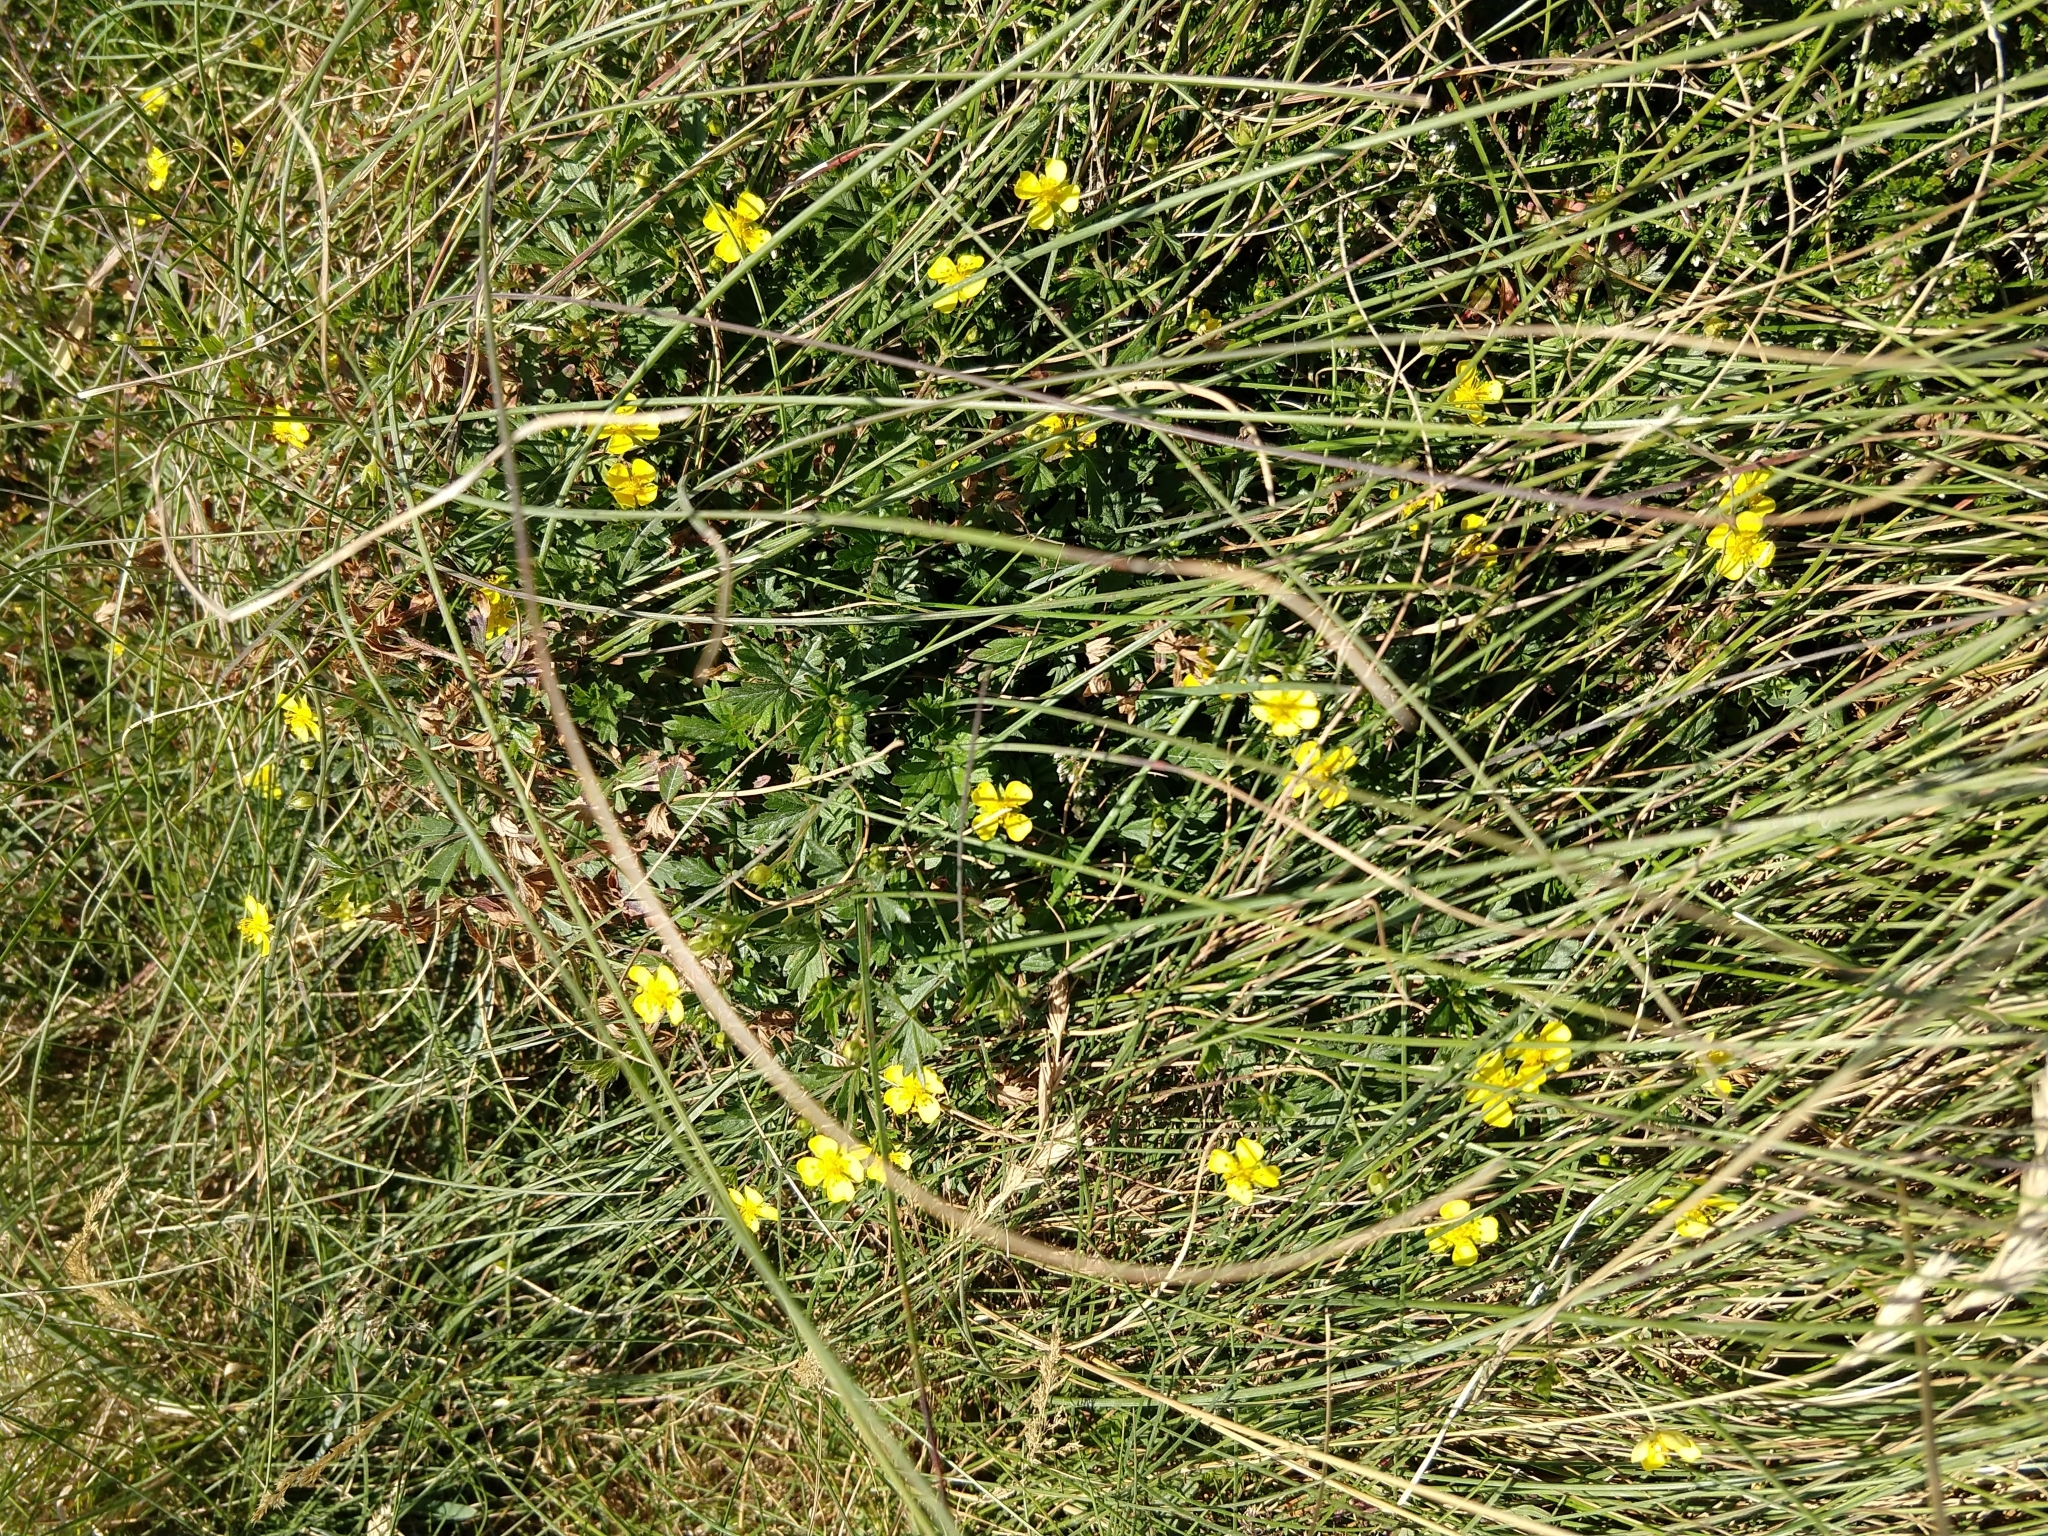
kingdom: Plantae
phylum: Tracheophyta
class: Magnoliopsida
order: Rosales
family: Rosaceae
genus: Potentilla
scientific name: Potentilla erecta
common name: Tormentil
